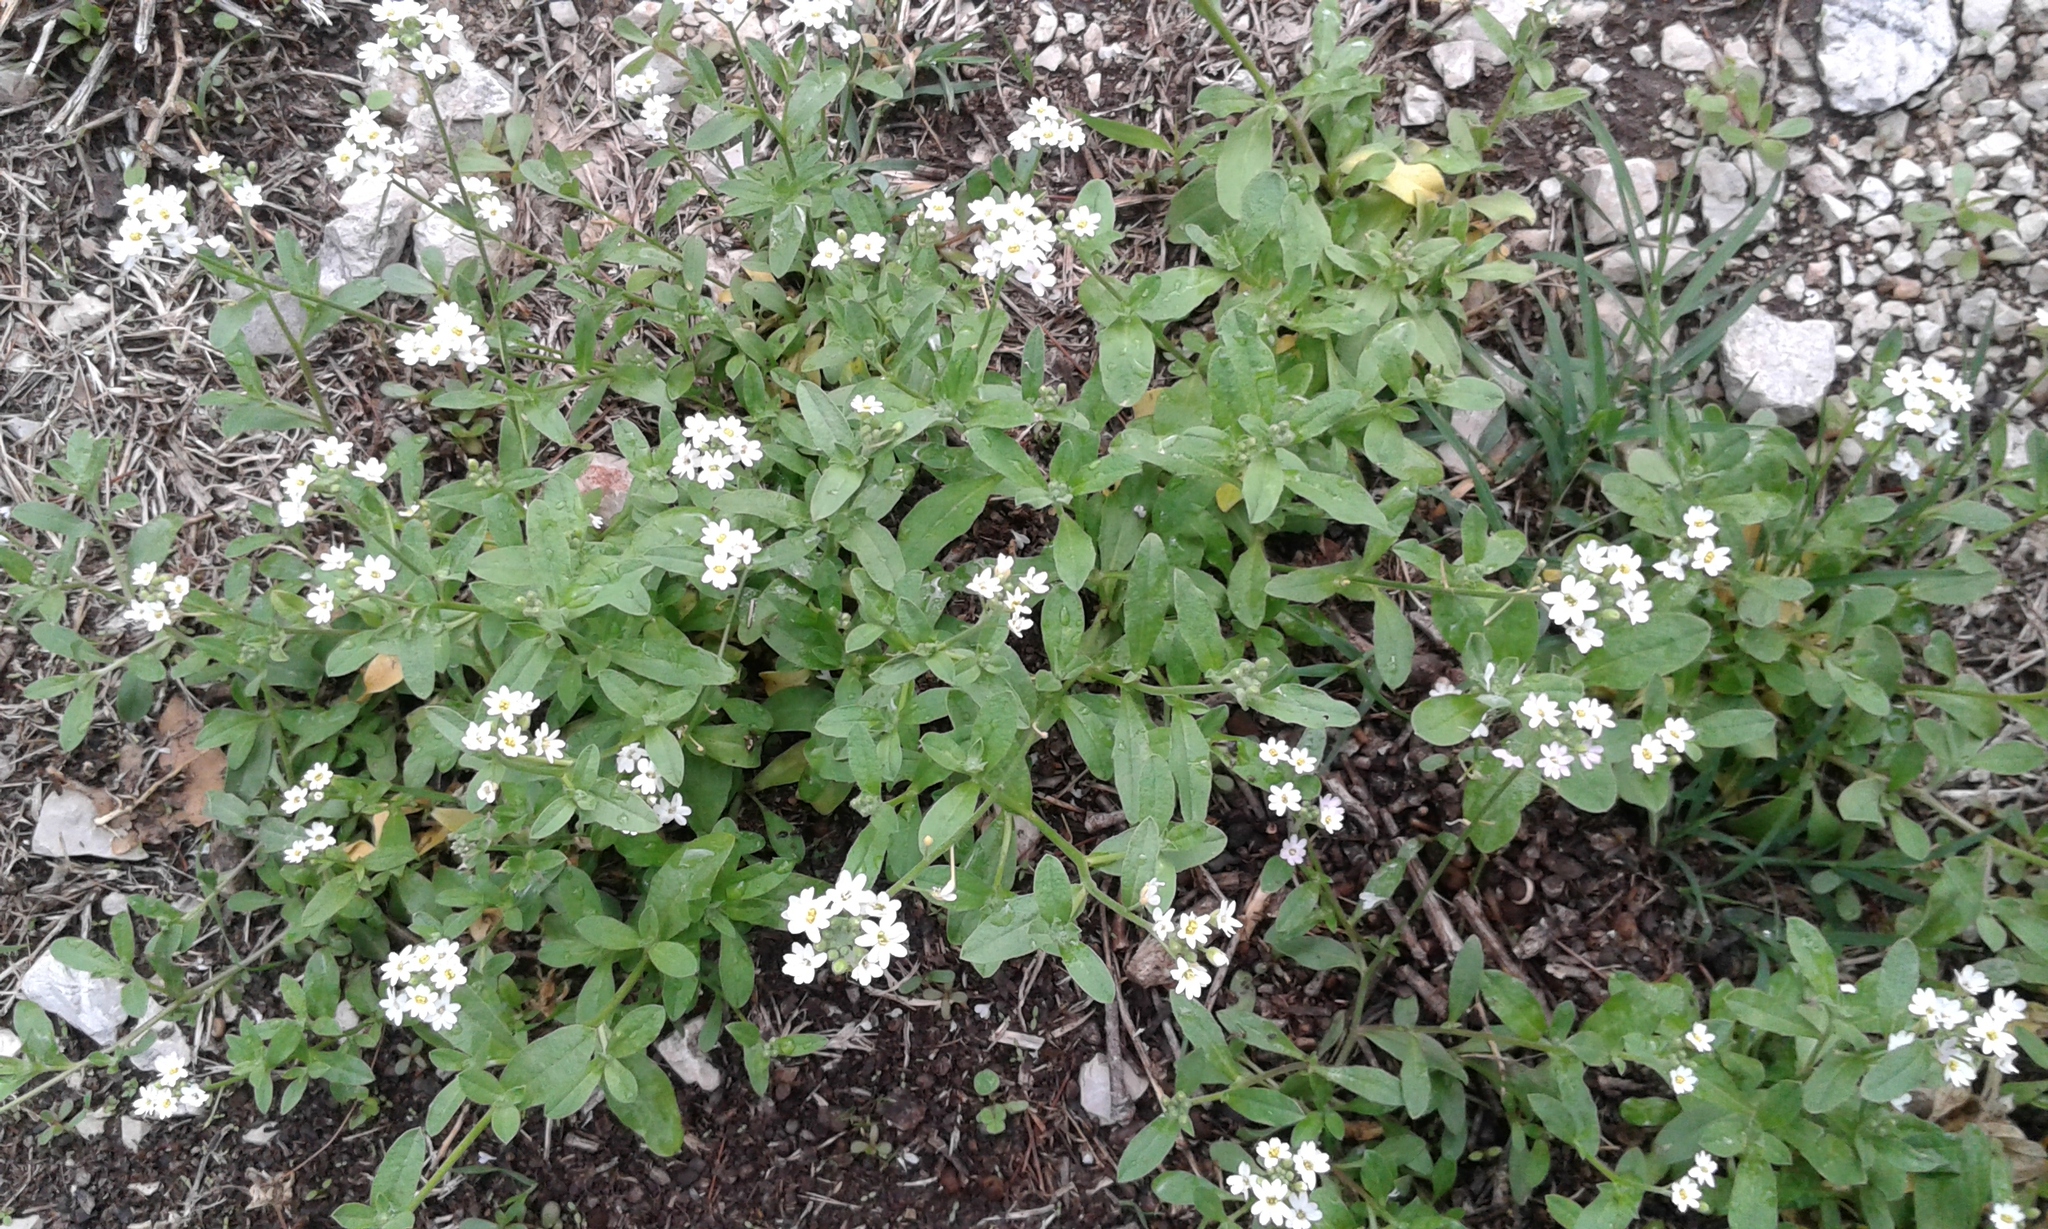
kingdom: Plantae
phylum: Tracheophyta
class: Magnoliopsida
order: Brassicales
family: Brassicaceae
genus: Berteroa
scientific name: Berteroa incana
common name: Hoary alison
